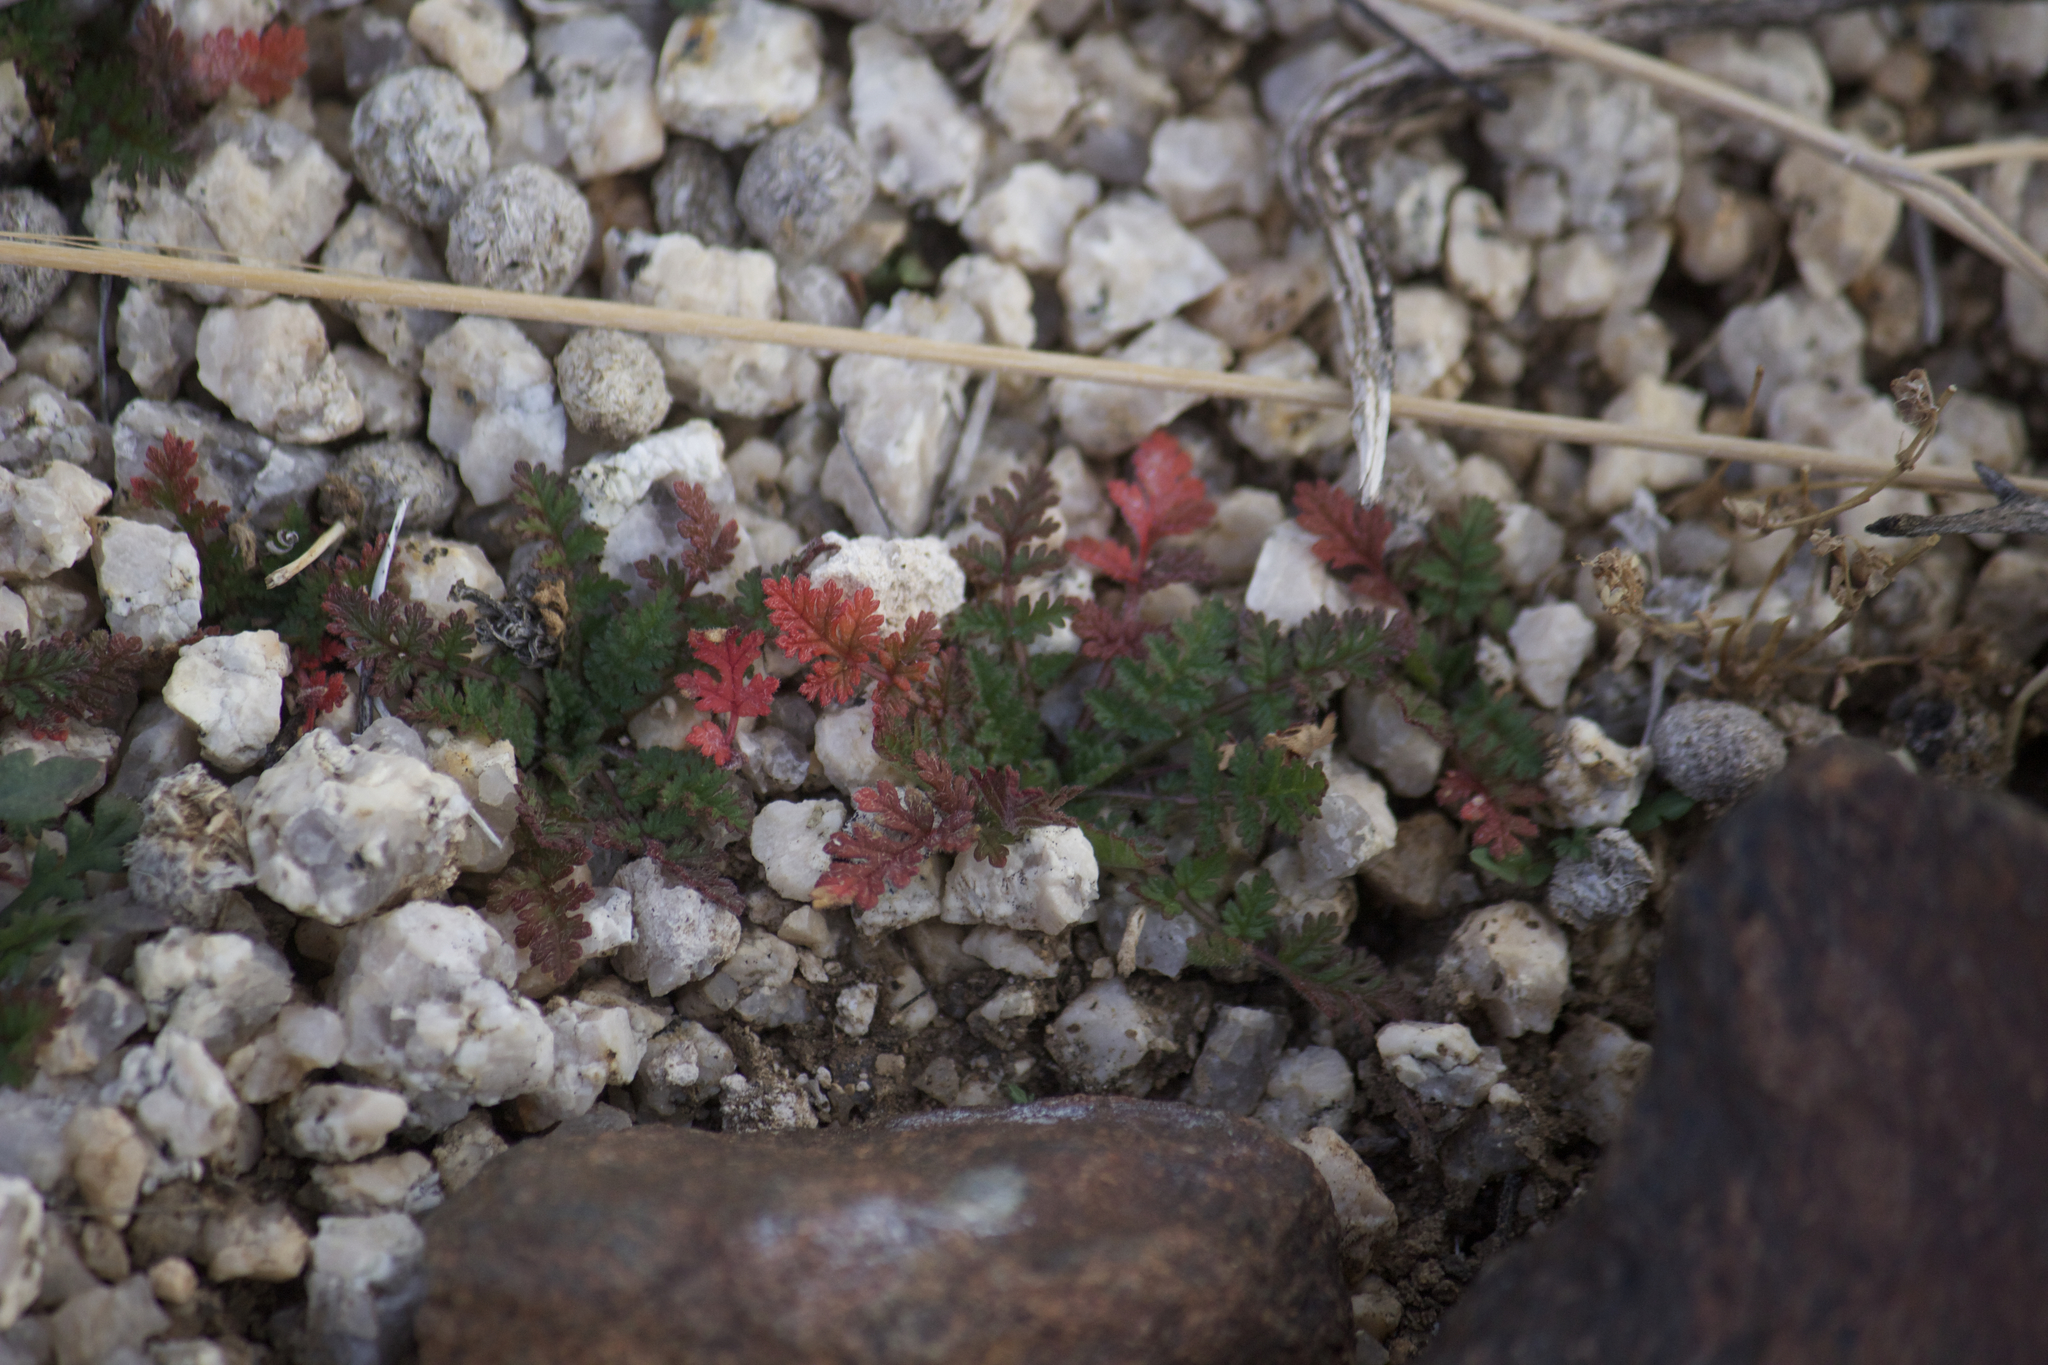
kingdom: Plantae
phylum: Tracheophyta
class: Magnoliopsida
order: Geraniales
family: Geraniaceae
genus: Erodium
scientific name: Erodium cicutarium
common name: Common stork's-bill
